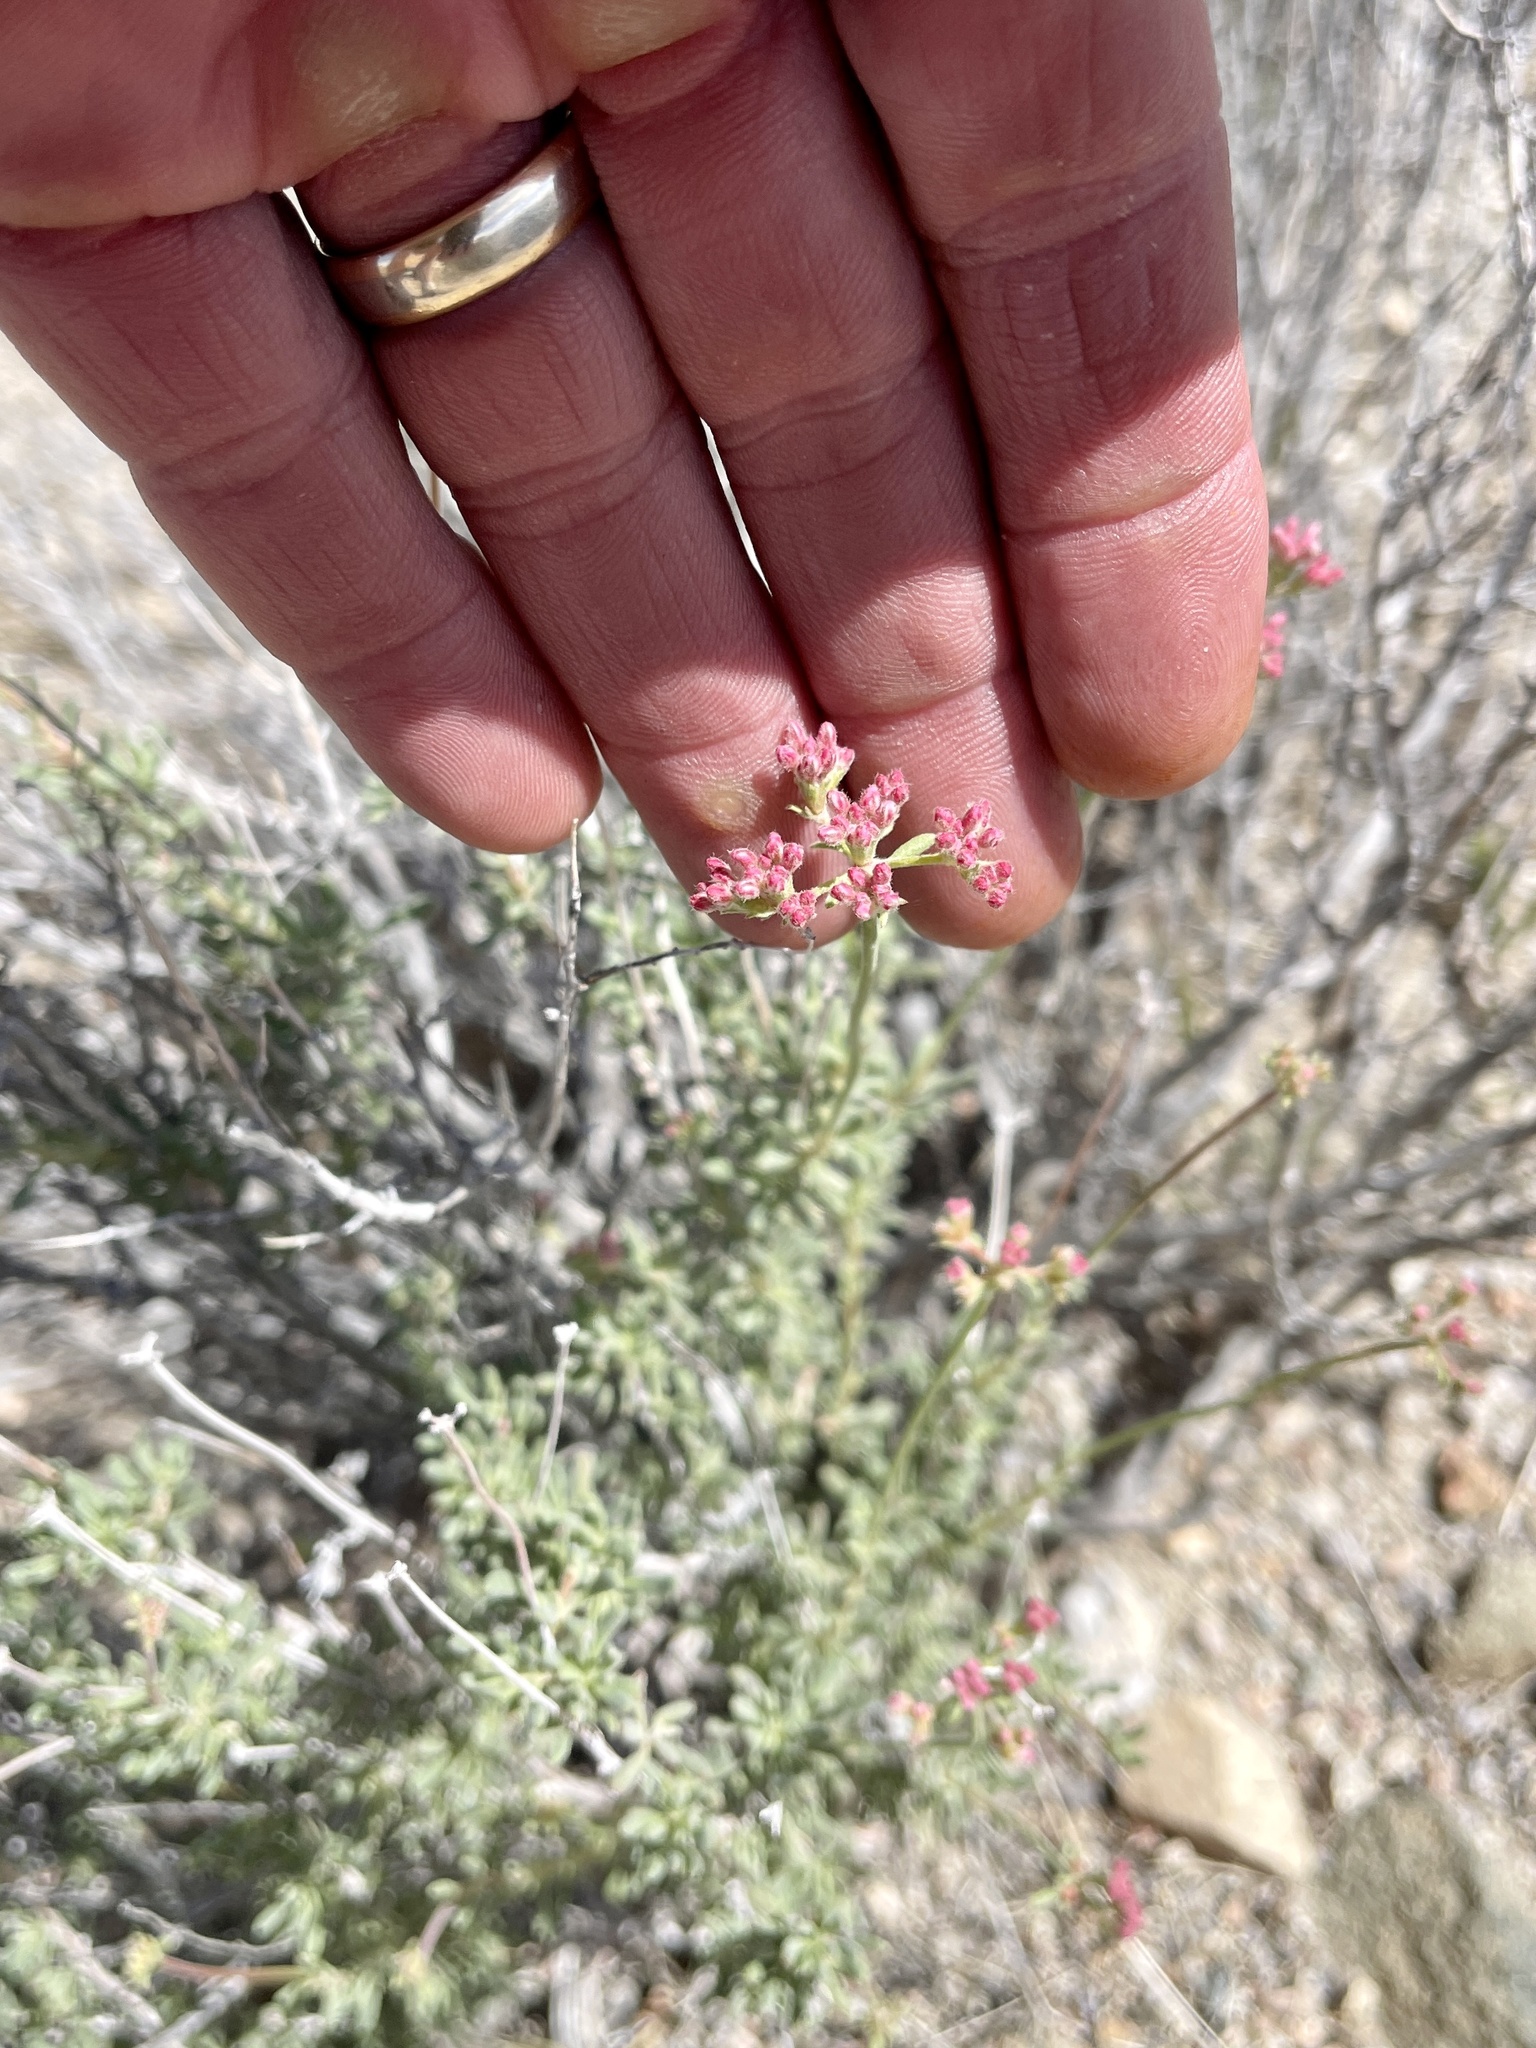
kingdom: Plantae
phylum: Tracheophyta
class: Magnoliopsida
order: Caryophyllales
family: Polygonaceae
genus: Eriogonum
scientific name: Eriogonum fasciculatum
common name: California wild buckwheat
